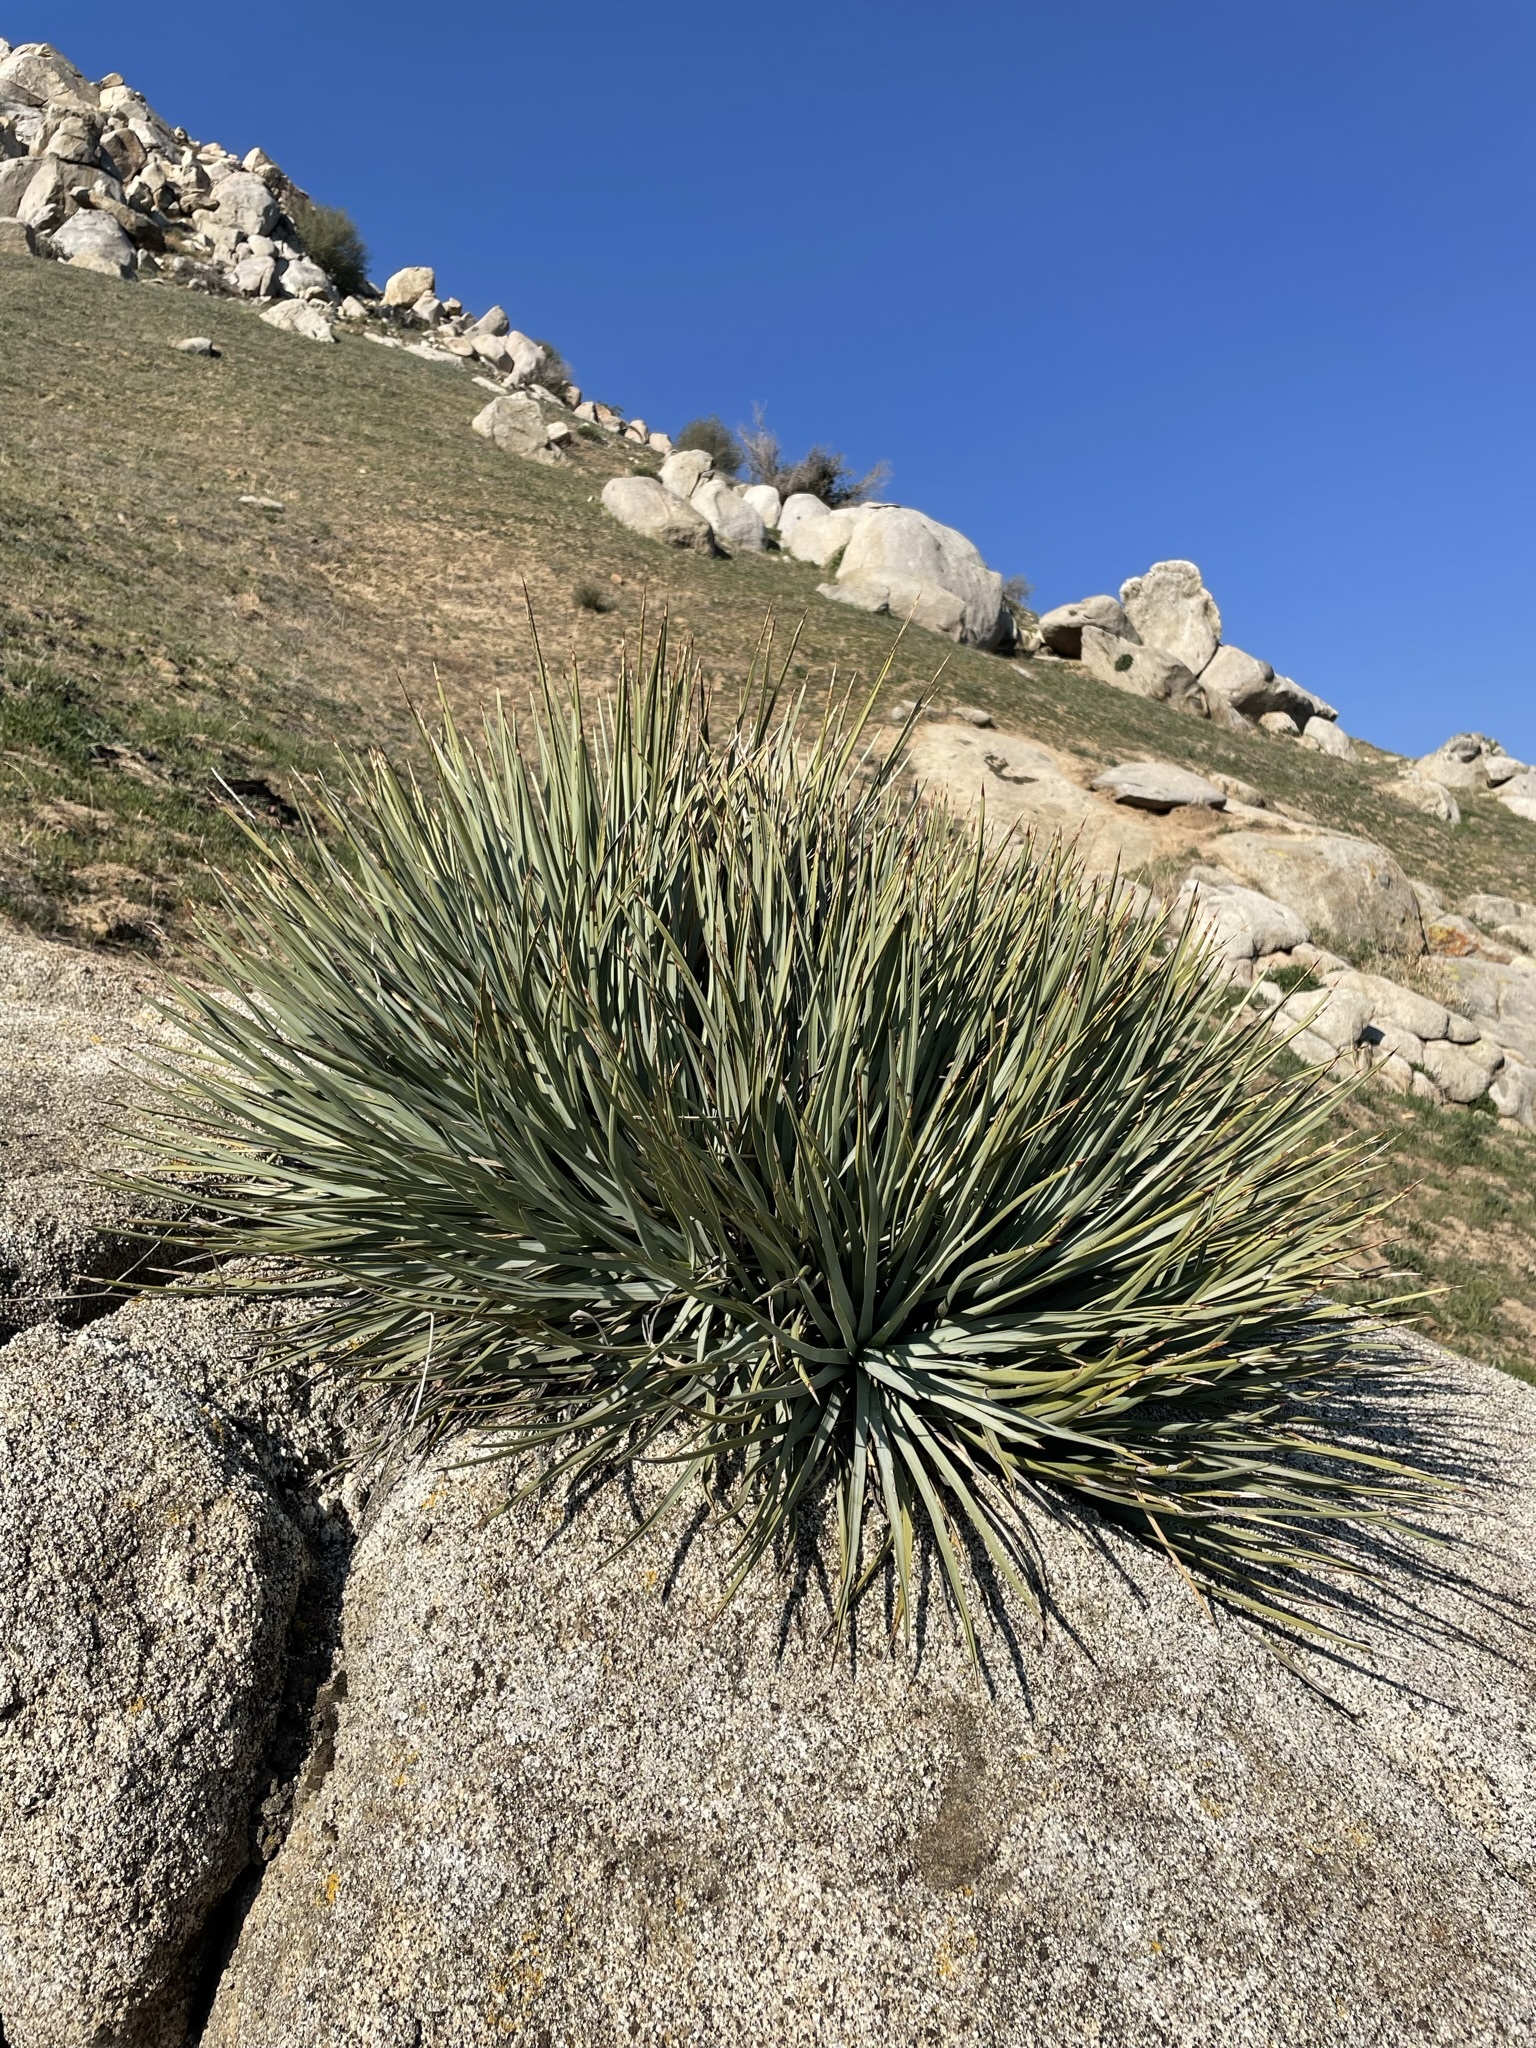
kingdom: Plantae
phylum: Tracheophyta
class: Liliopsida
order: Asparagales
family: Asparagaceae
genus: Hesperoyucca
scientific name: Hesperoyucca whipplei
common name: Our lord's-candle
